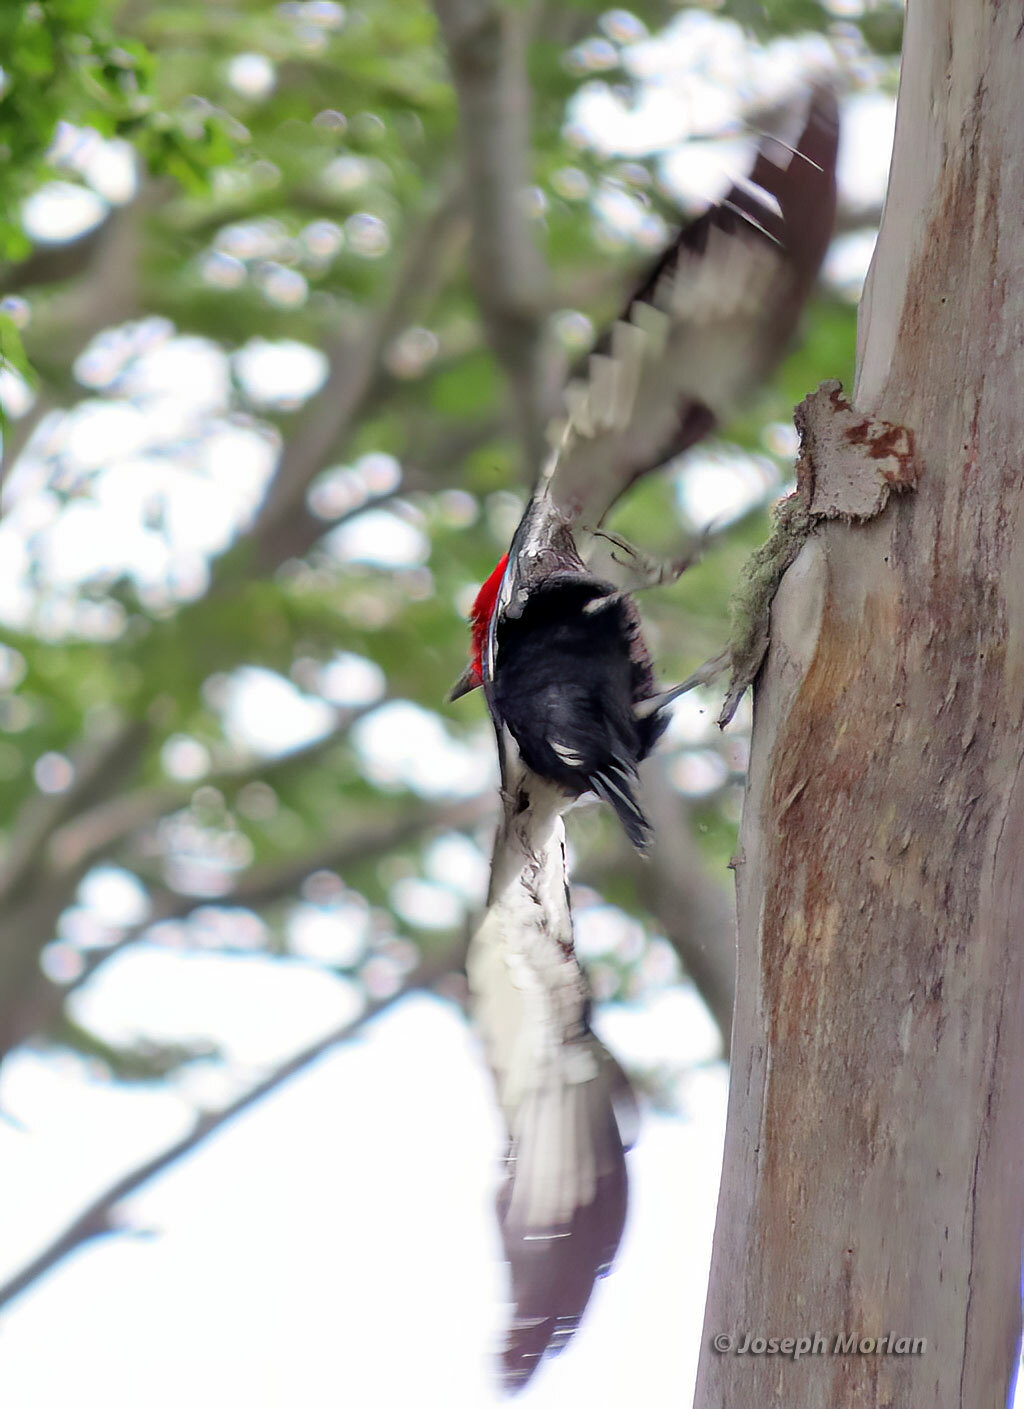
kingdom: Animalia
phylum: Chordata
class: Aves
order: Piciformes
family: Picidae
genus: Campephilus
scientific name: Campephilus magellanicus
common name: Magellanic woodpecker
